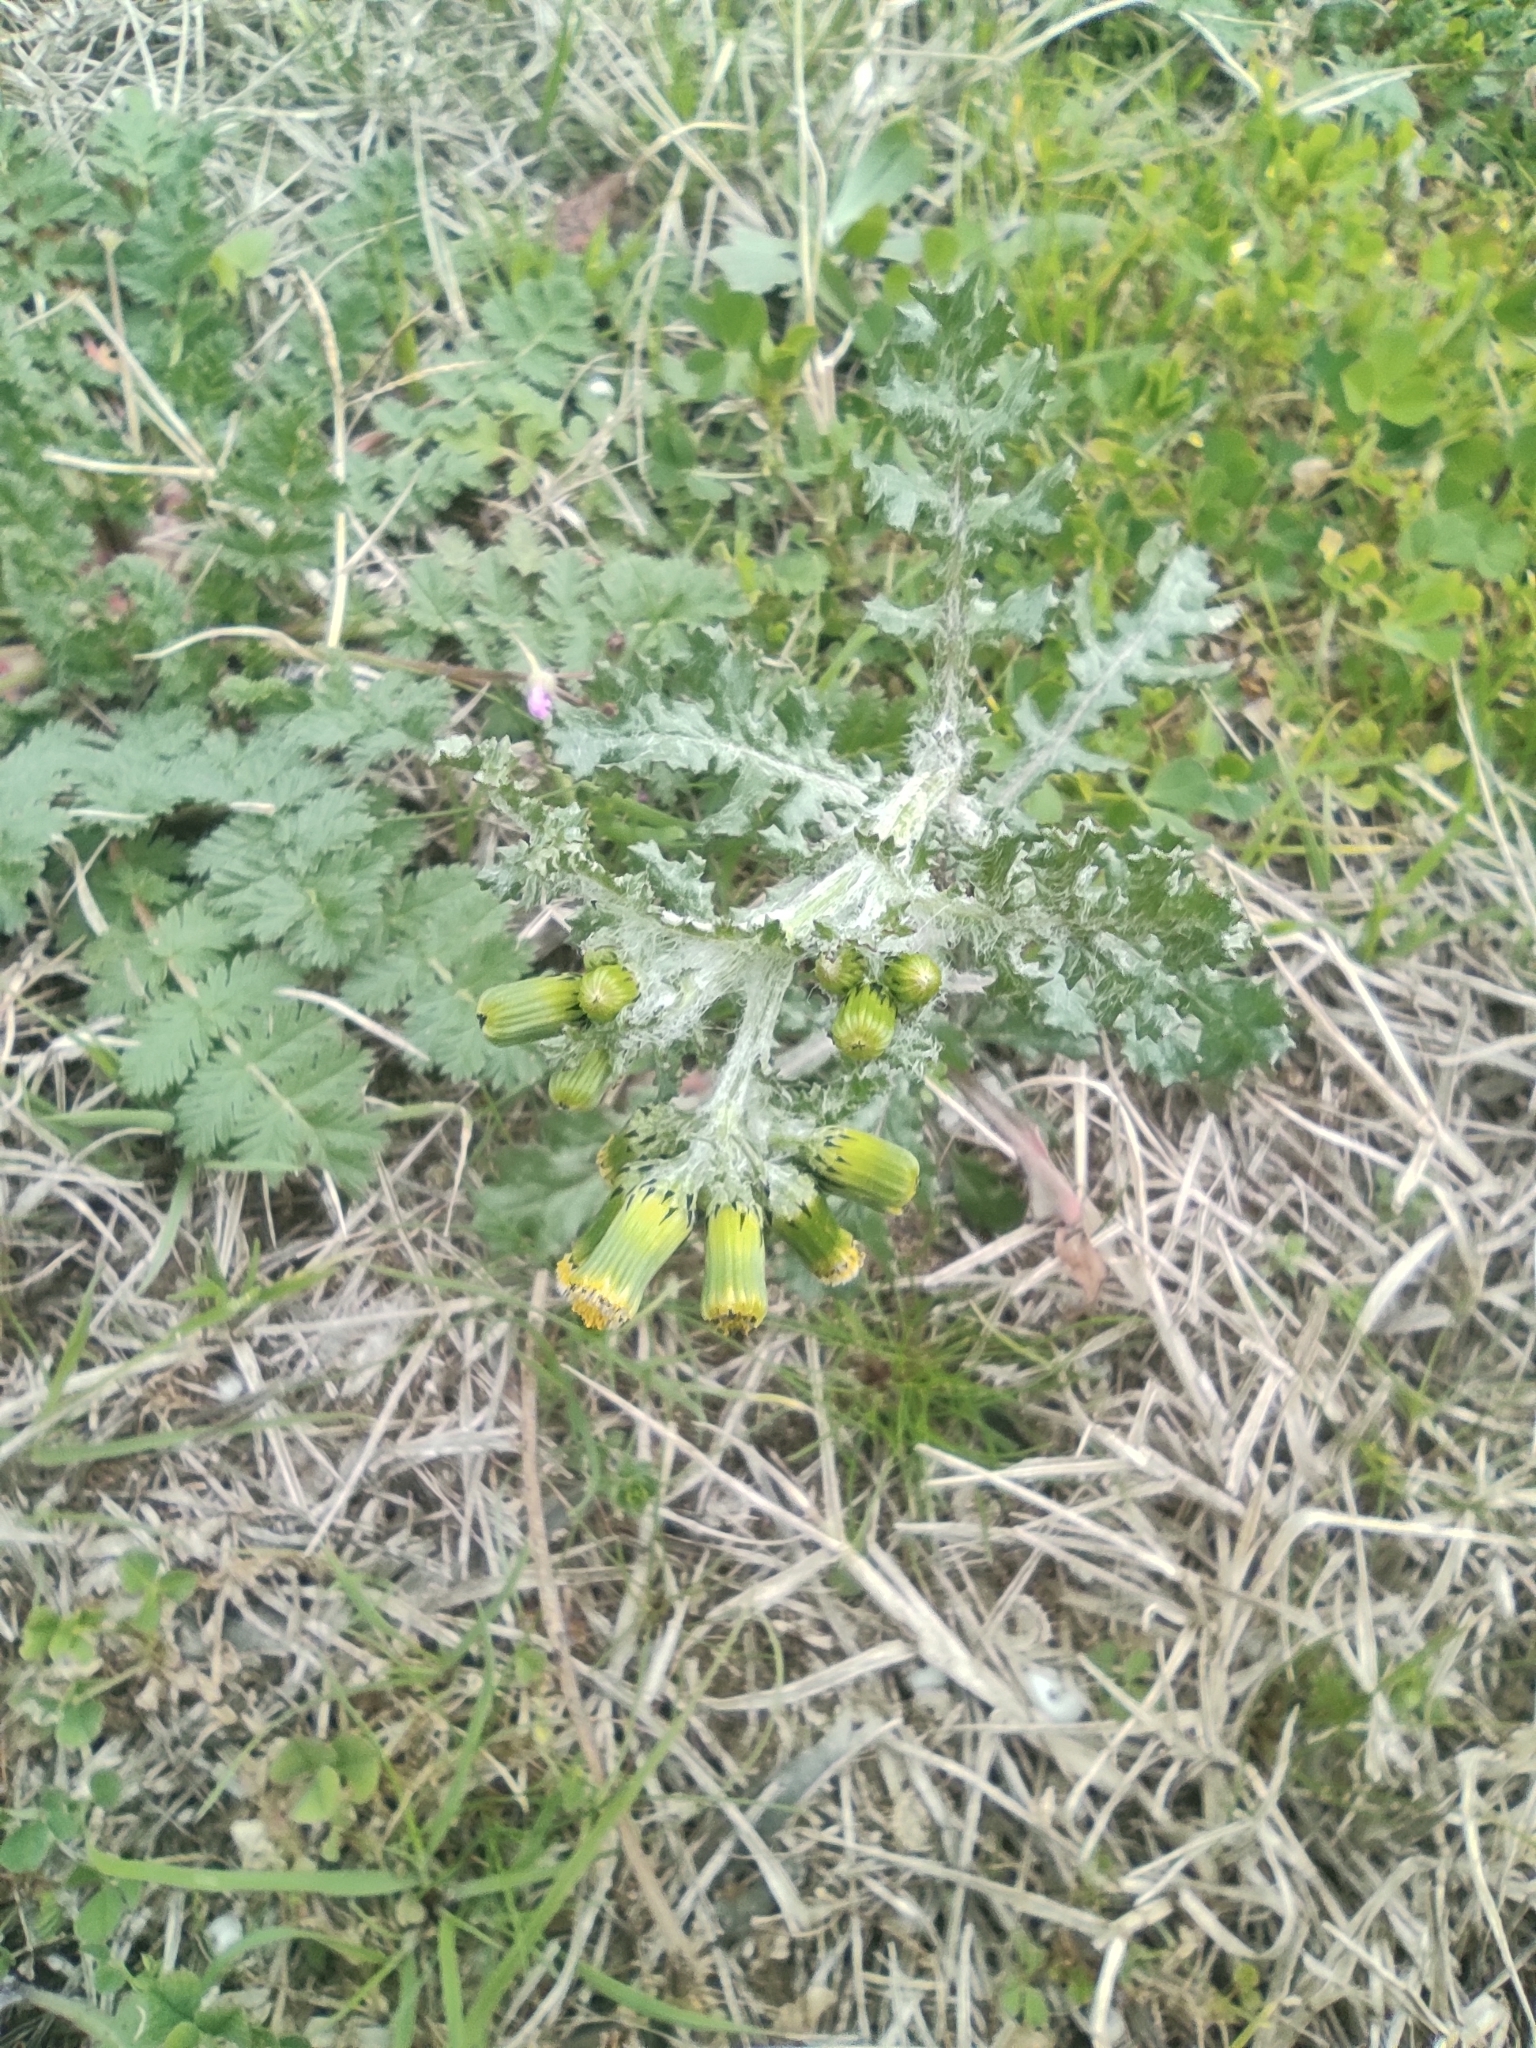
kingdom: Plantae
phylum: Tracheophyta
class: Magnoliopsida
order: Asterales
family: Asteraceae
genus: Senecio
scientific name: Senecio vulgaris
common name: Old-man-in-the-spring
